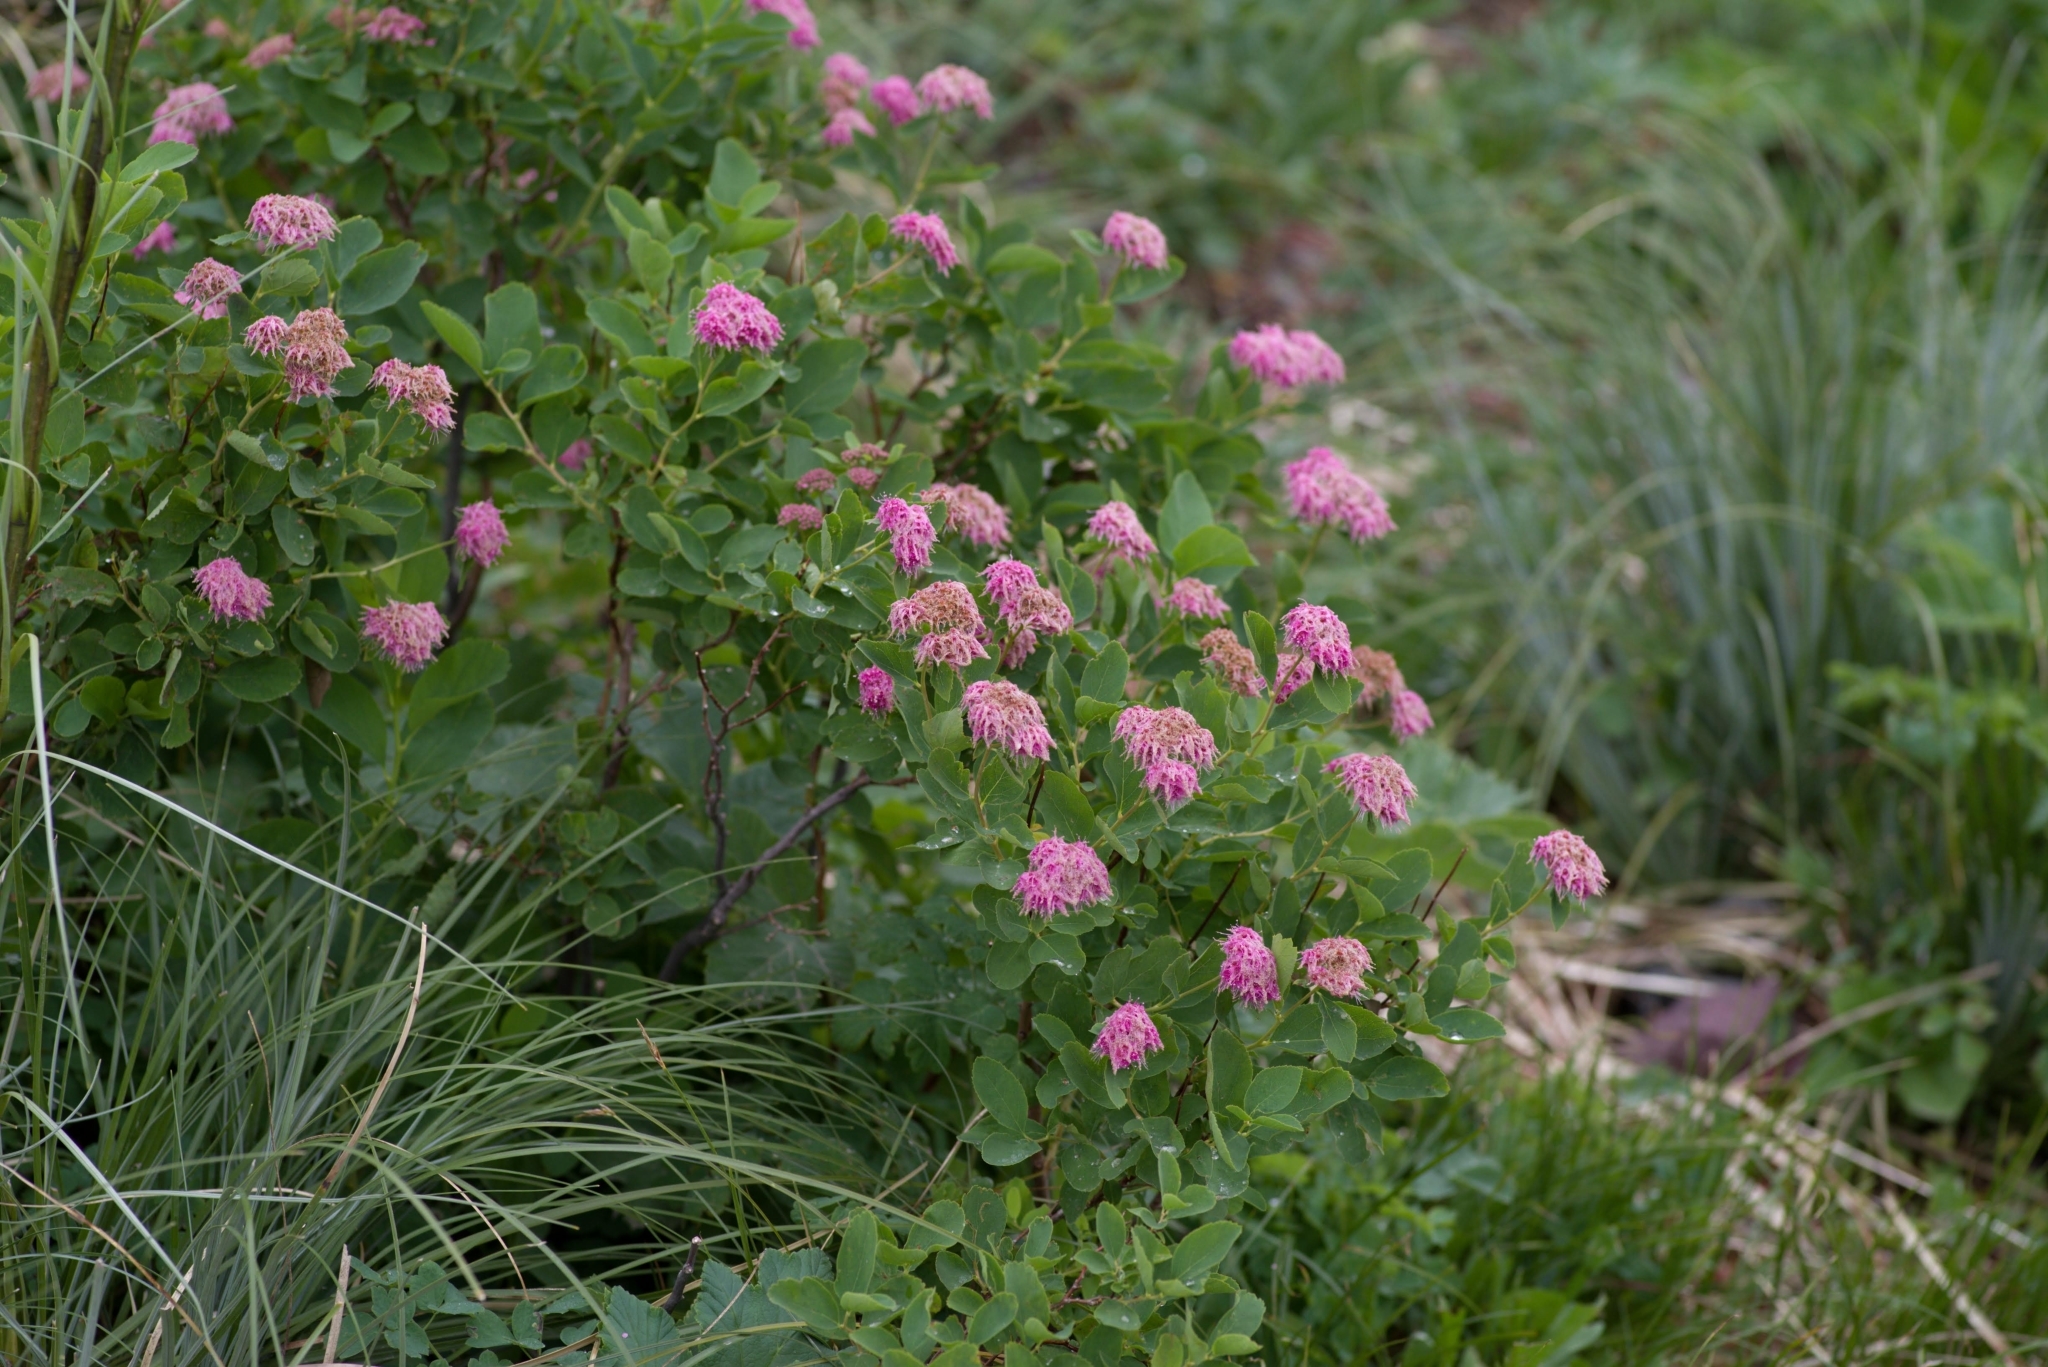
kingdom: Plantae
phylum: Tracheophyta
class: Magnoliopsida
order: Rosales
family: Rosaceae
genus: Spiraea
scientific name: Spiraea splendens
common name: Subalpine meadowsweet
